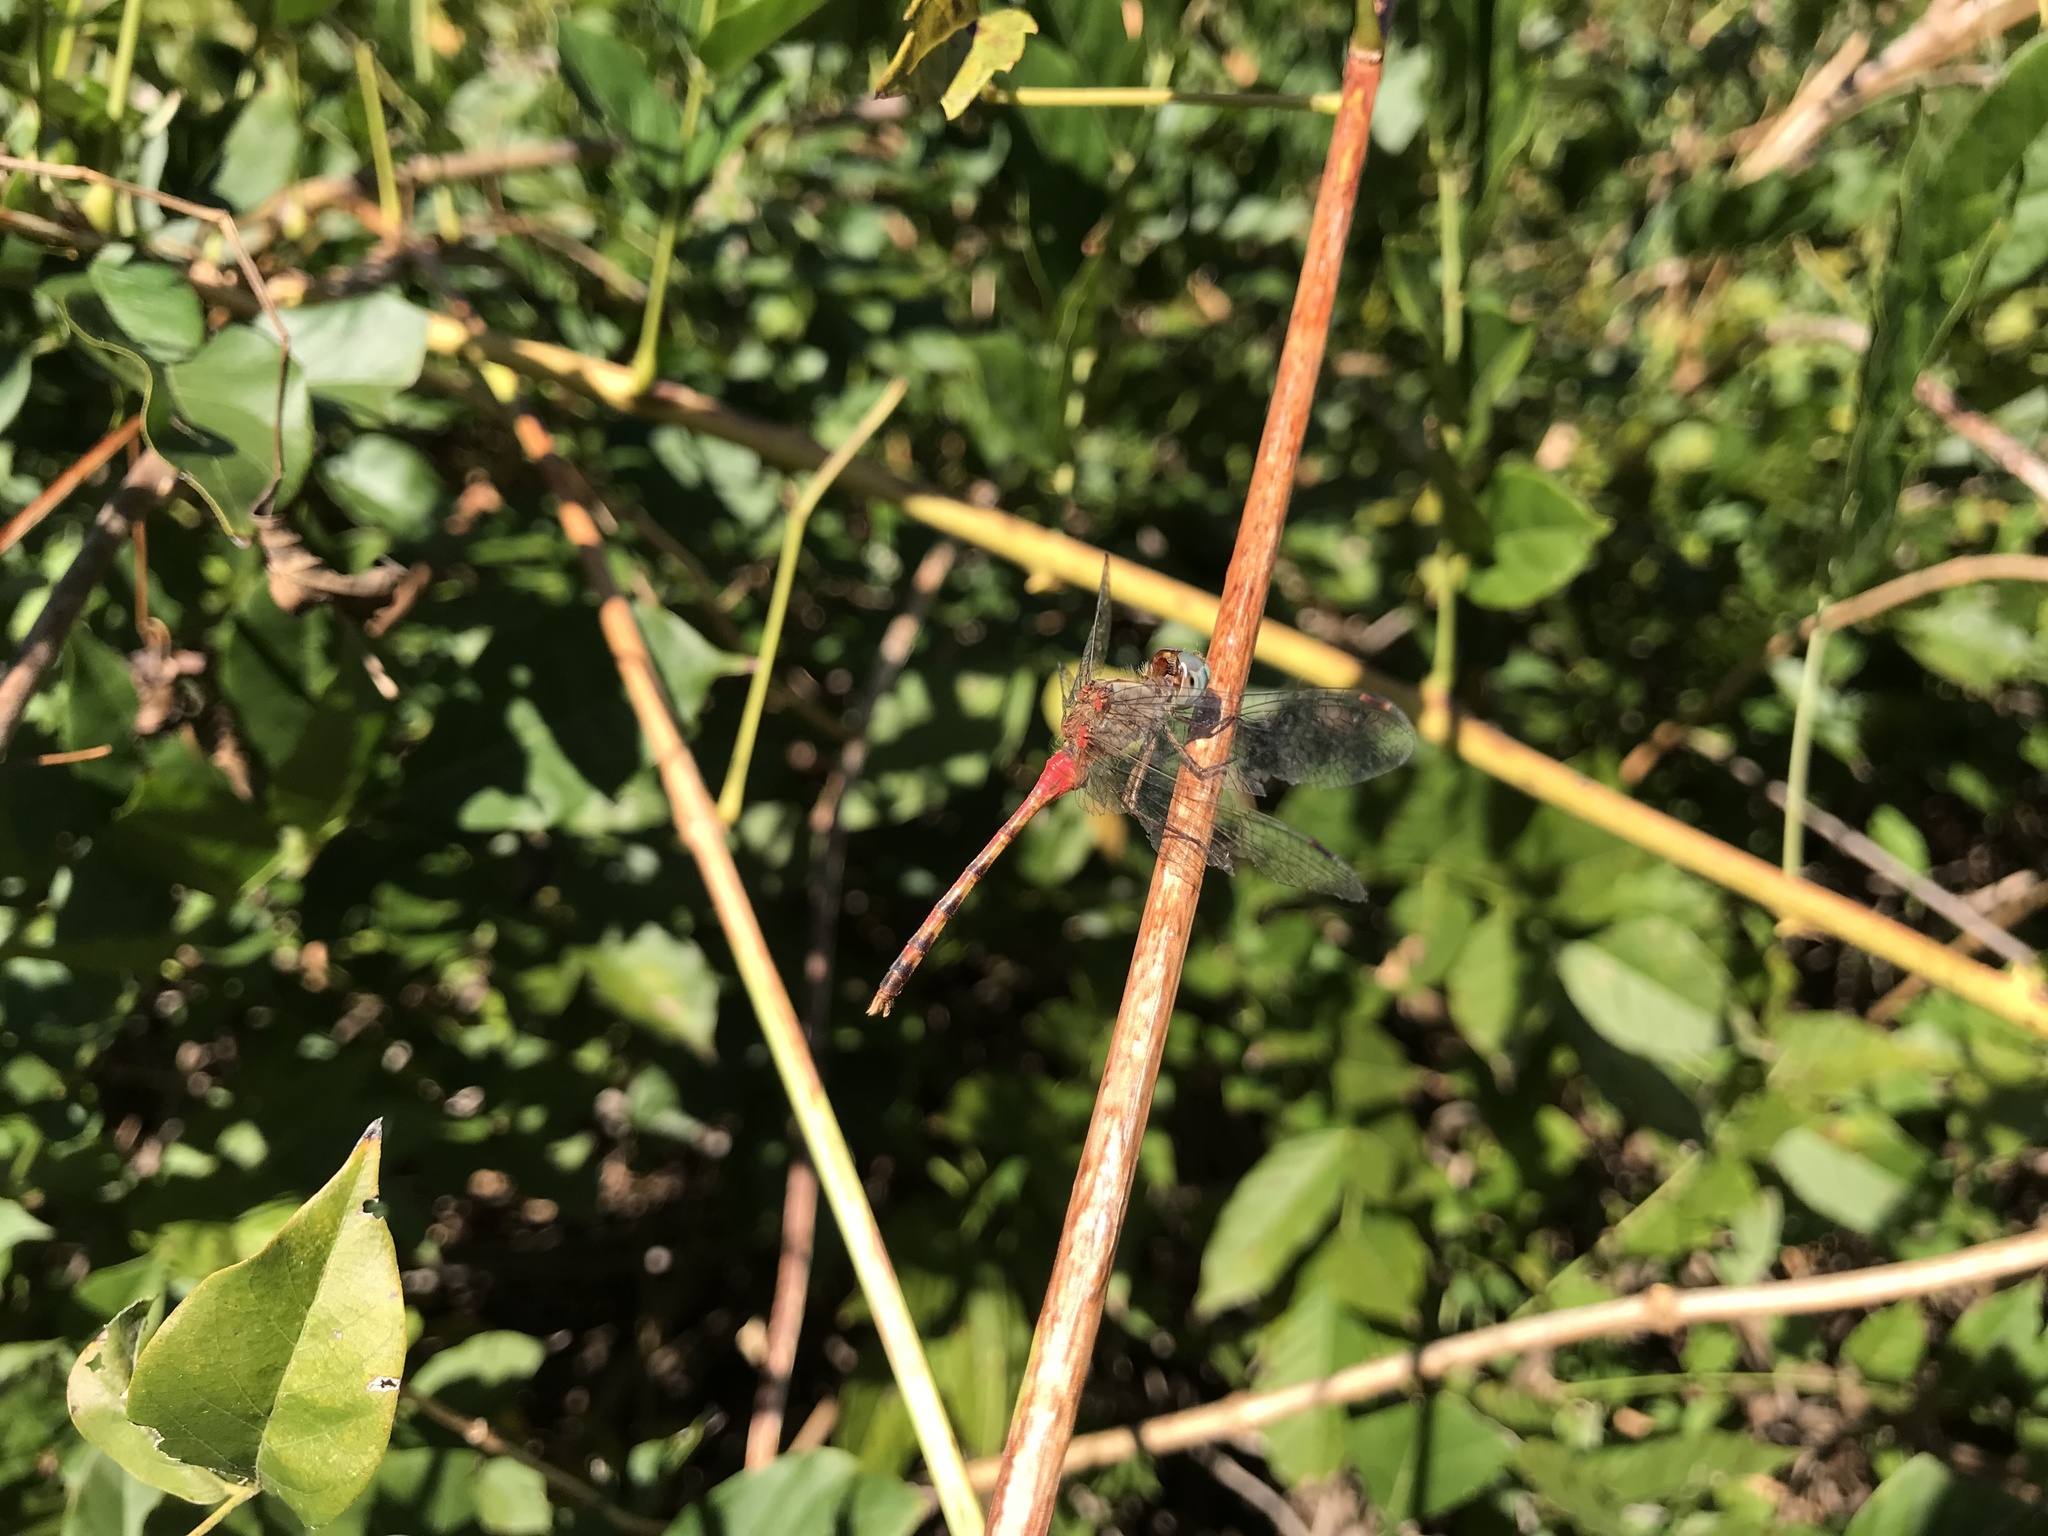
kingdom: Animalia
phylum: Arthropoda
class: Insecta
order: Odonata
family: Libellulidae
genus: Sympetrum
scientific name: Sympetrum ambiguum
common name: Blue-faced meadowhawk
